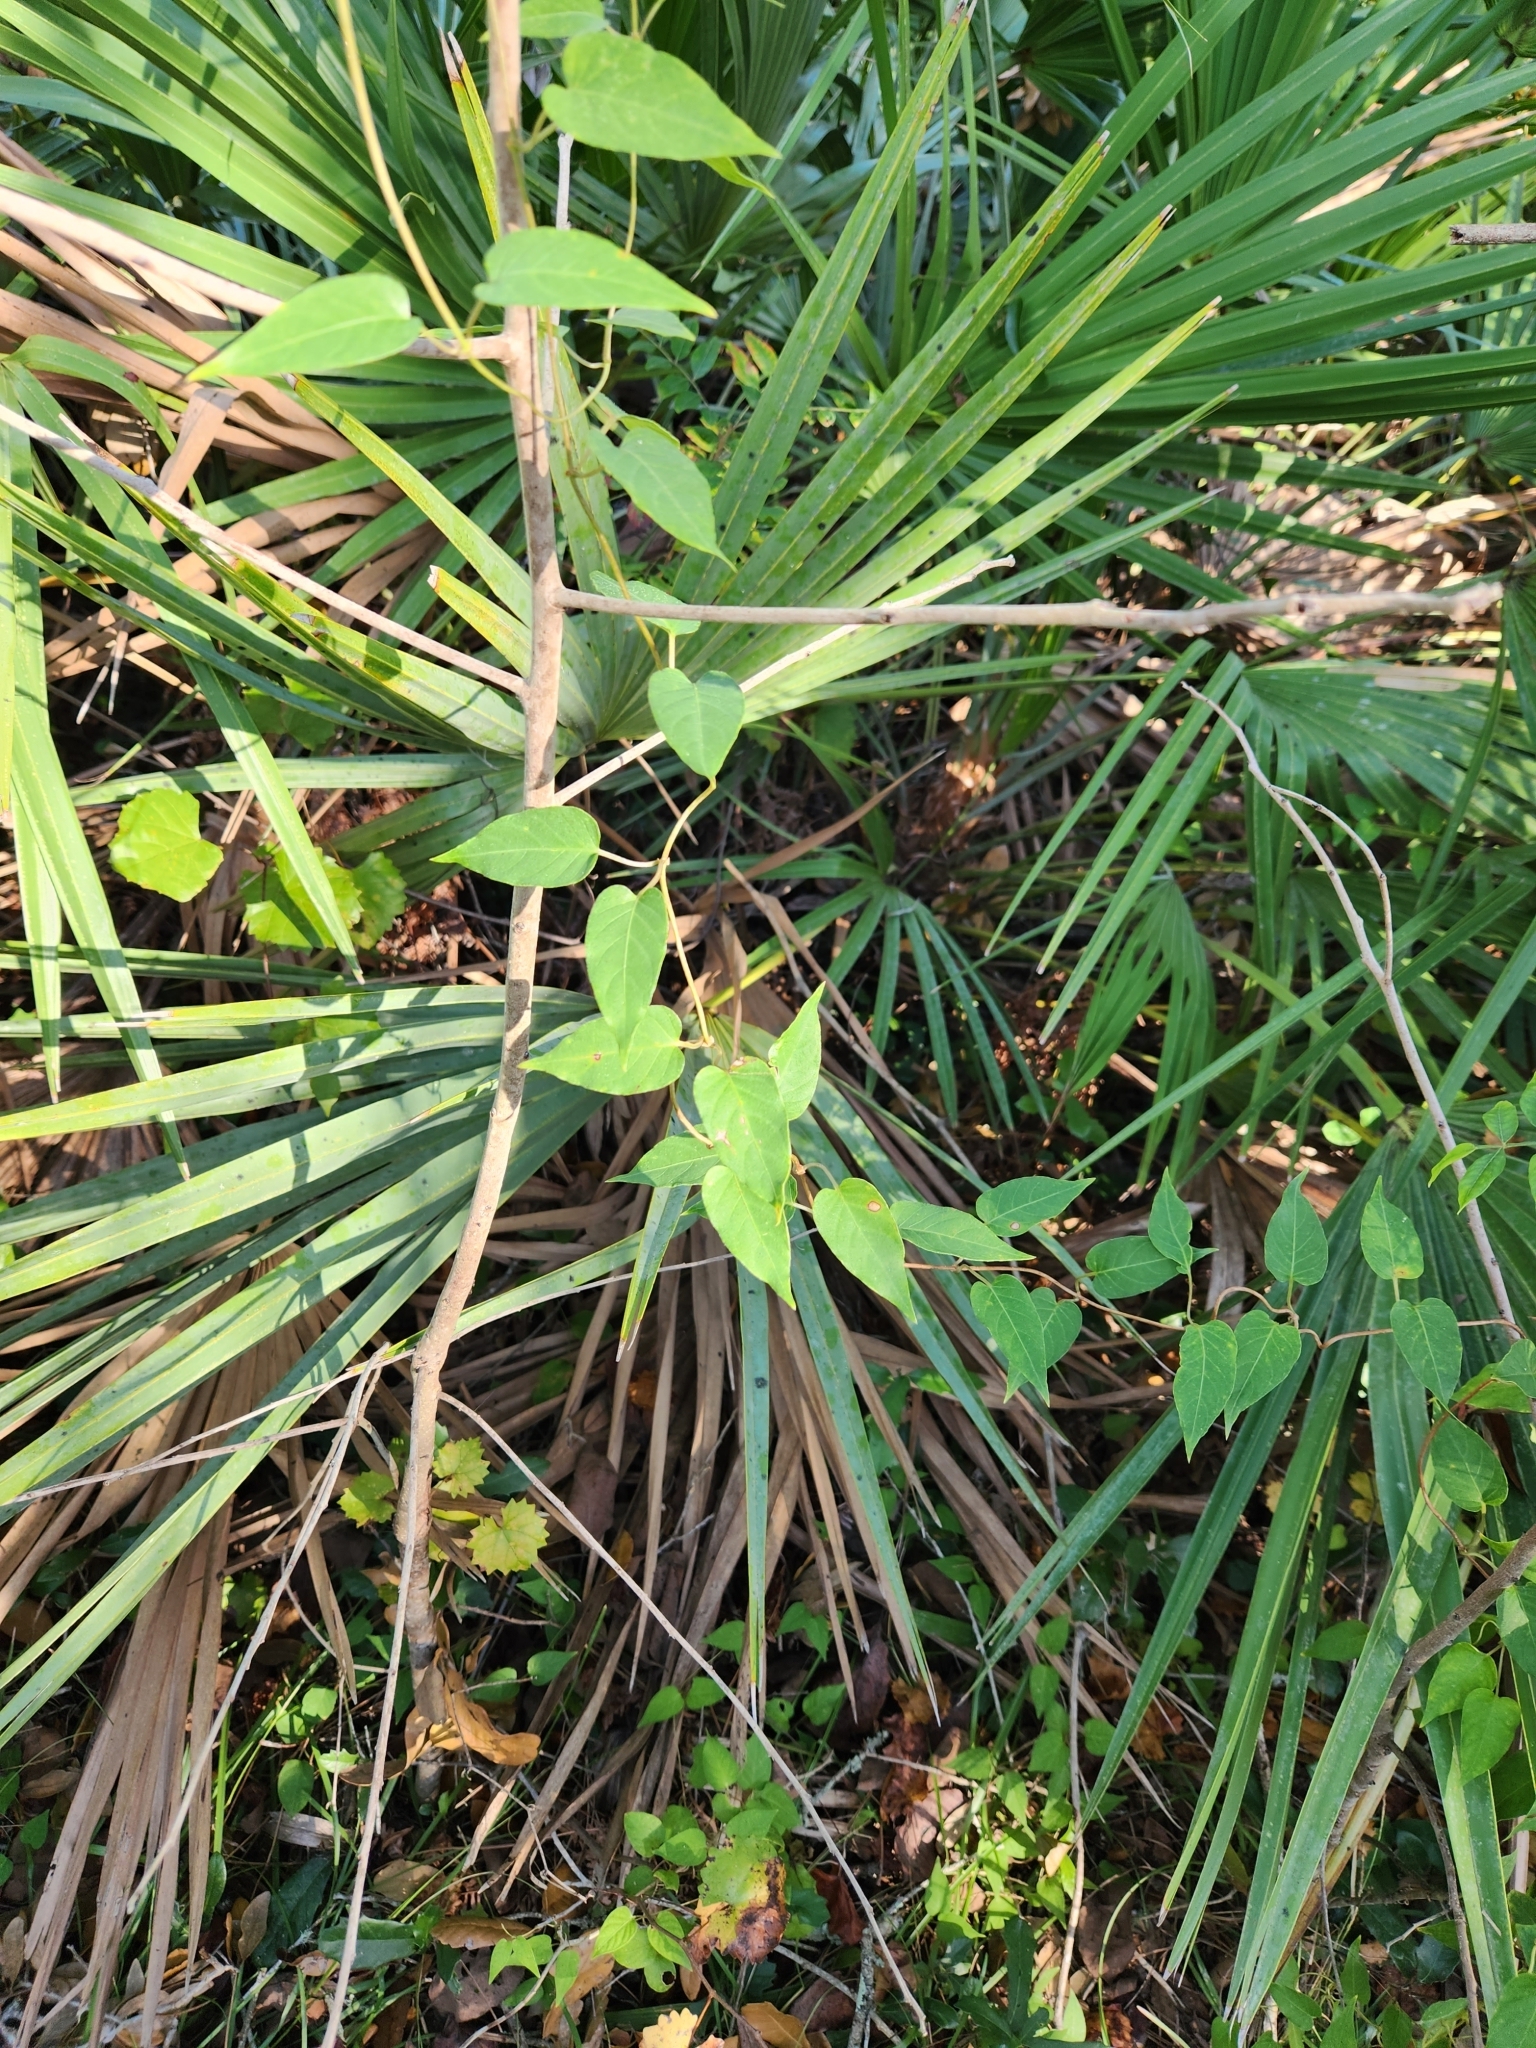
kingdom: Plantae
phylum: Tracheophyta
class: Magnoliopsida
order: Gentianales
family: Rubiaceae
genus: Paederia
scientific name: Paederia foetida
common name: Stinkvine
